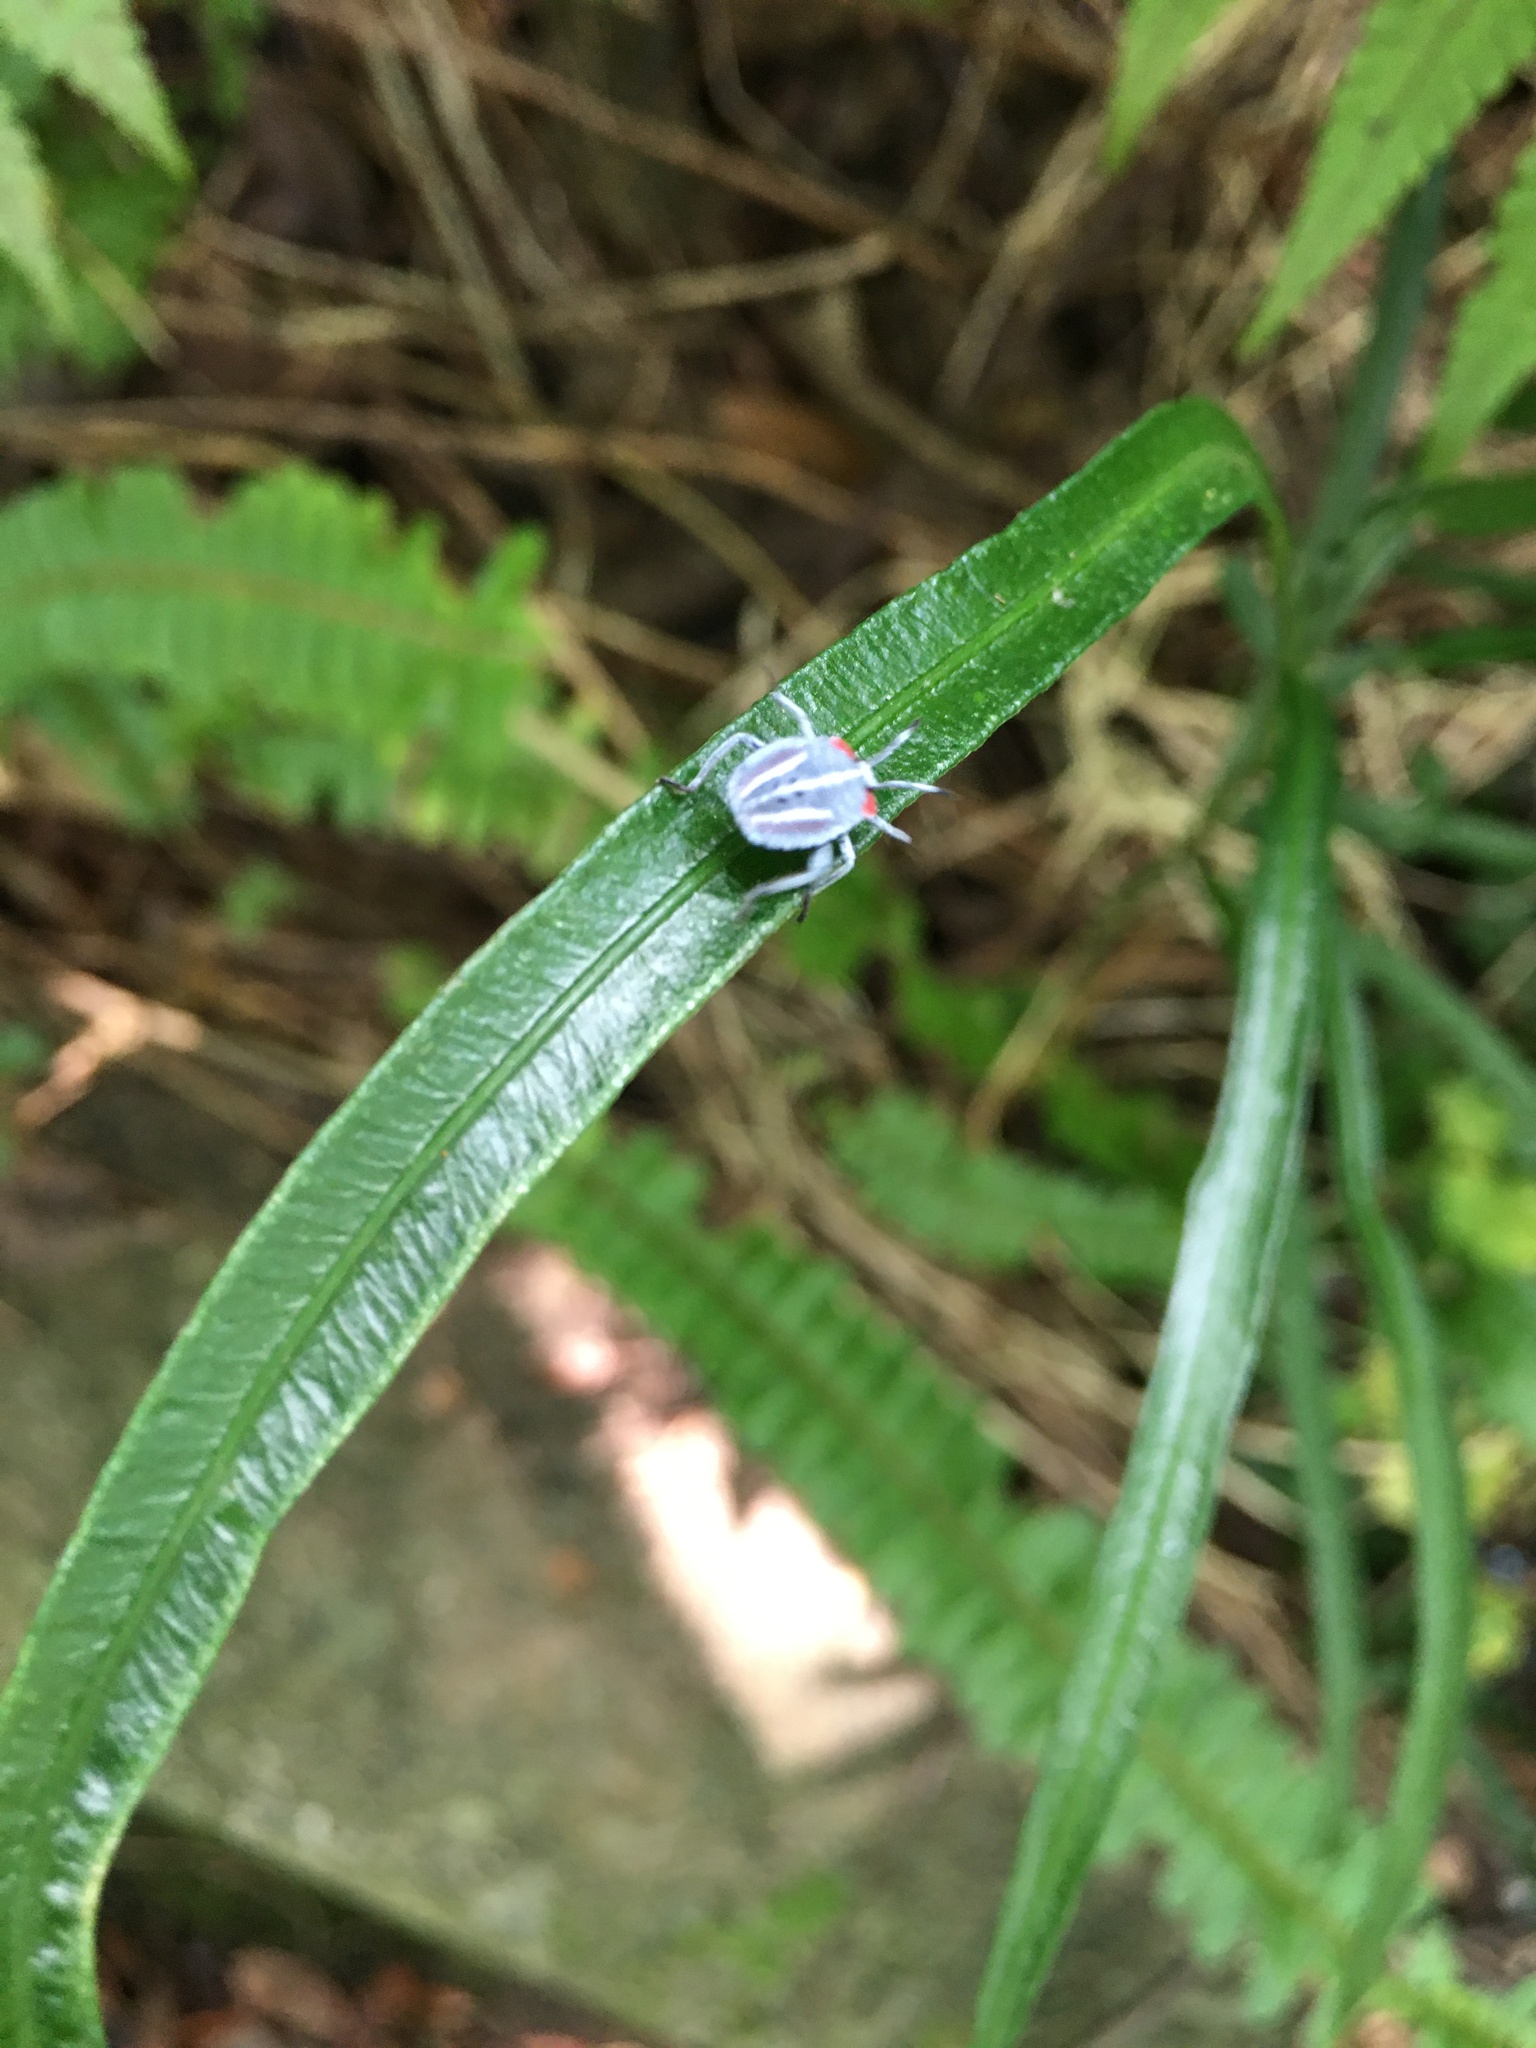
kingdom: Animalia
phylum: Arthropoda
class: Insecta
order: Hemiptera
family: Tessaratomidae
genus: Tessaratoma
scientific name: Tessaratoma papillosa
